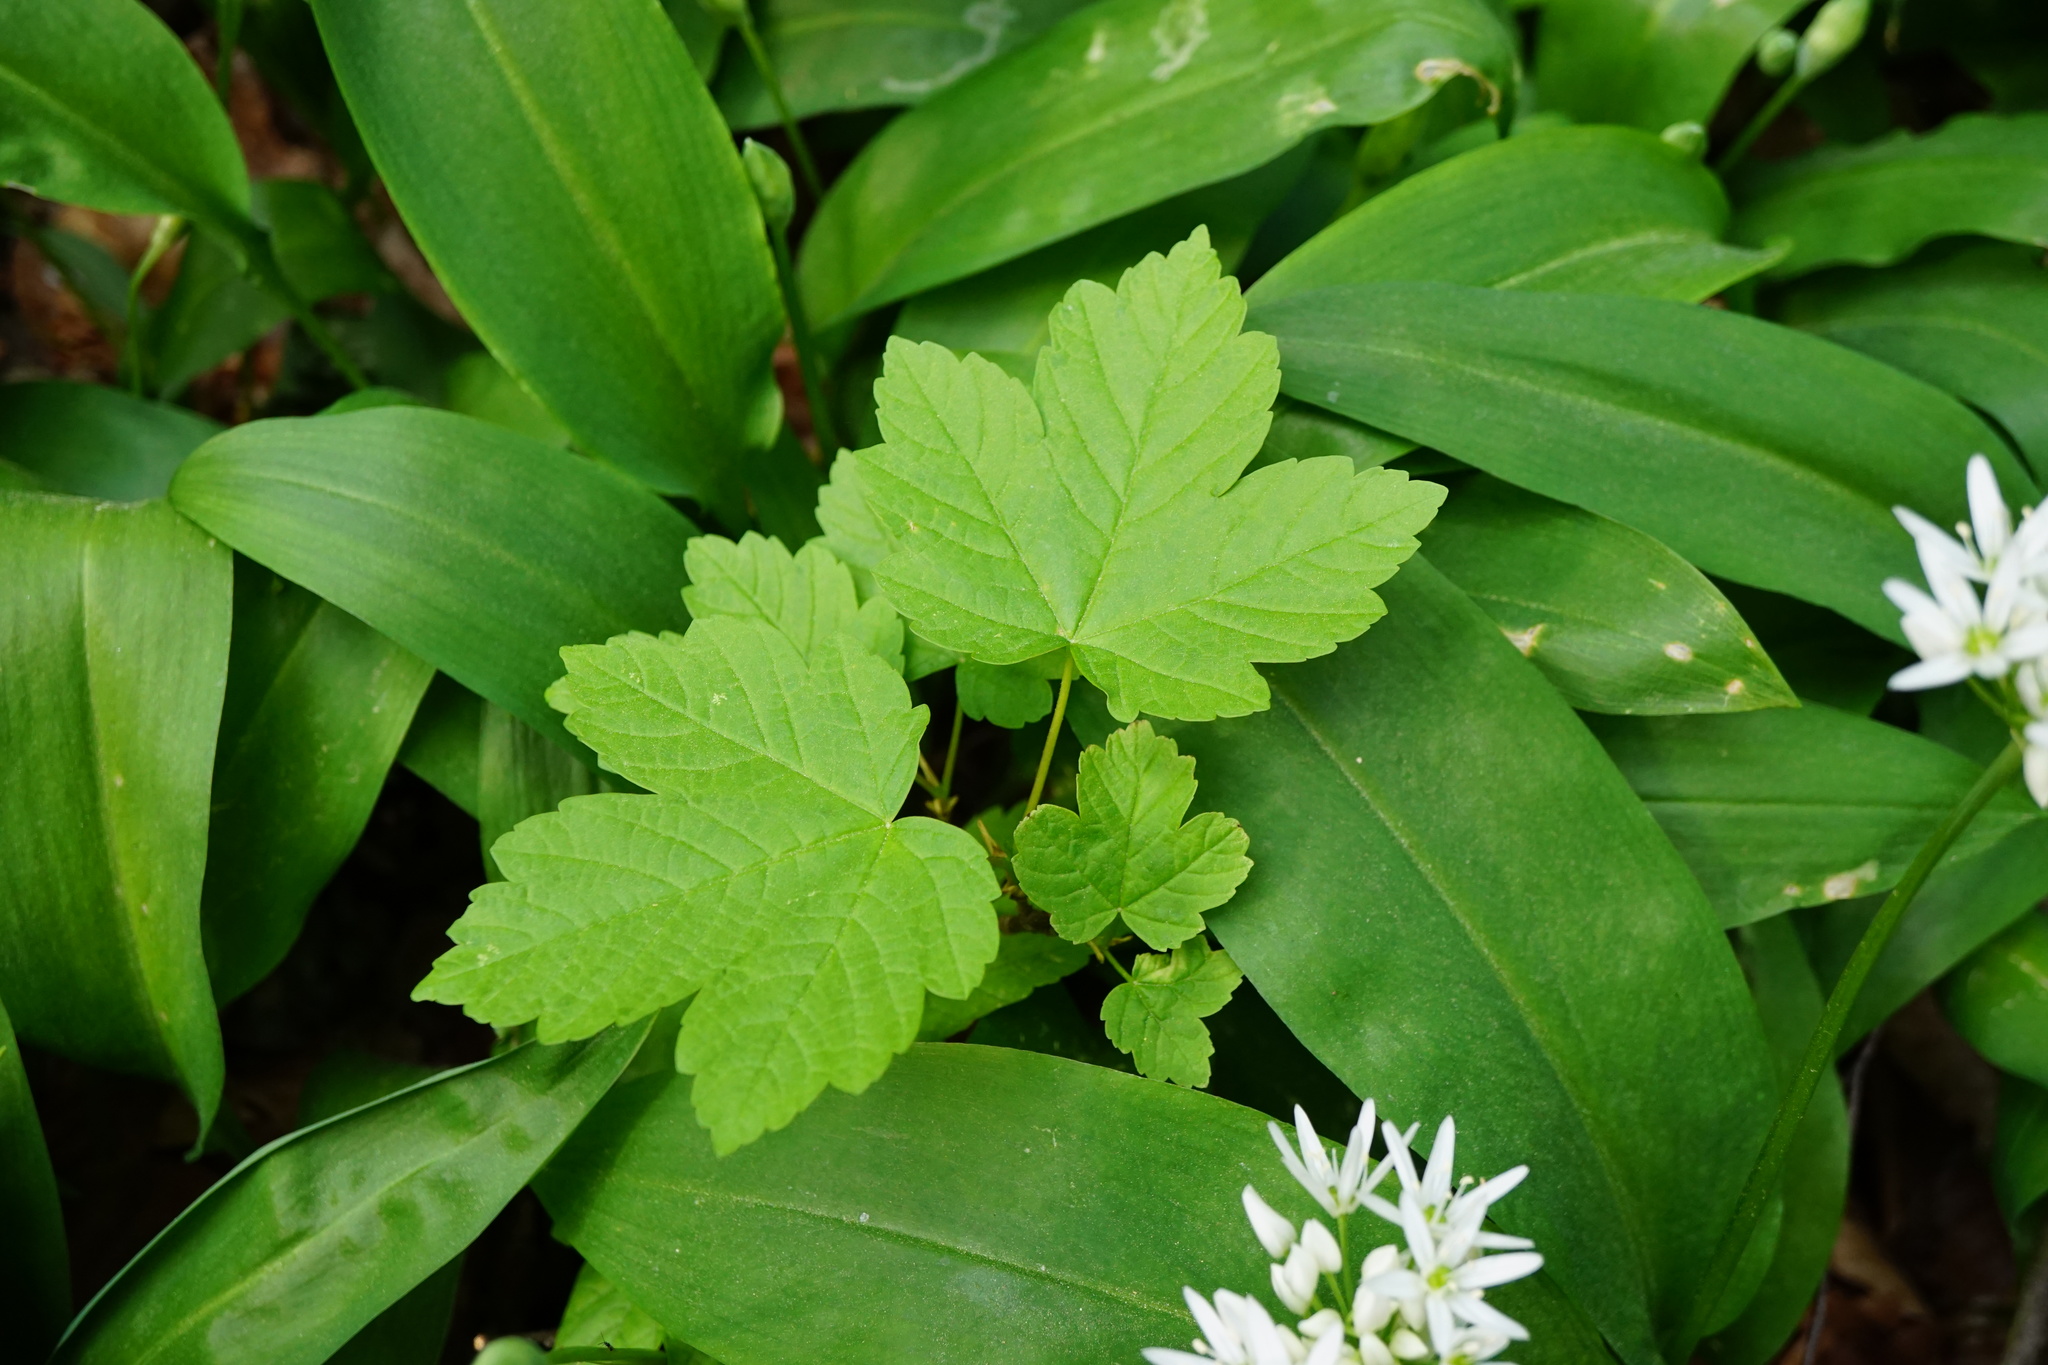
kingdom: Plantae
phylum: Tracheophyta
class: Magnoliopsida
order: Sapindales
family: Sapindaceae
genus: Acer
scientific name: Acer pseudoplatanus
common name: Sycamore
